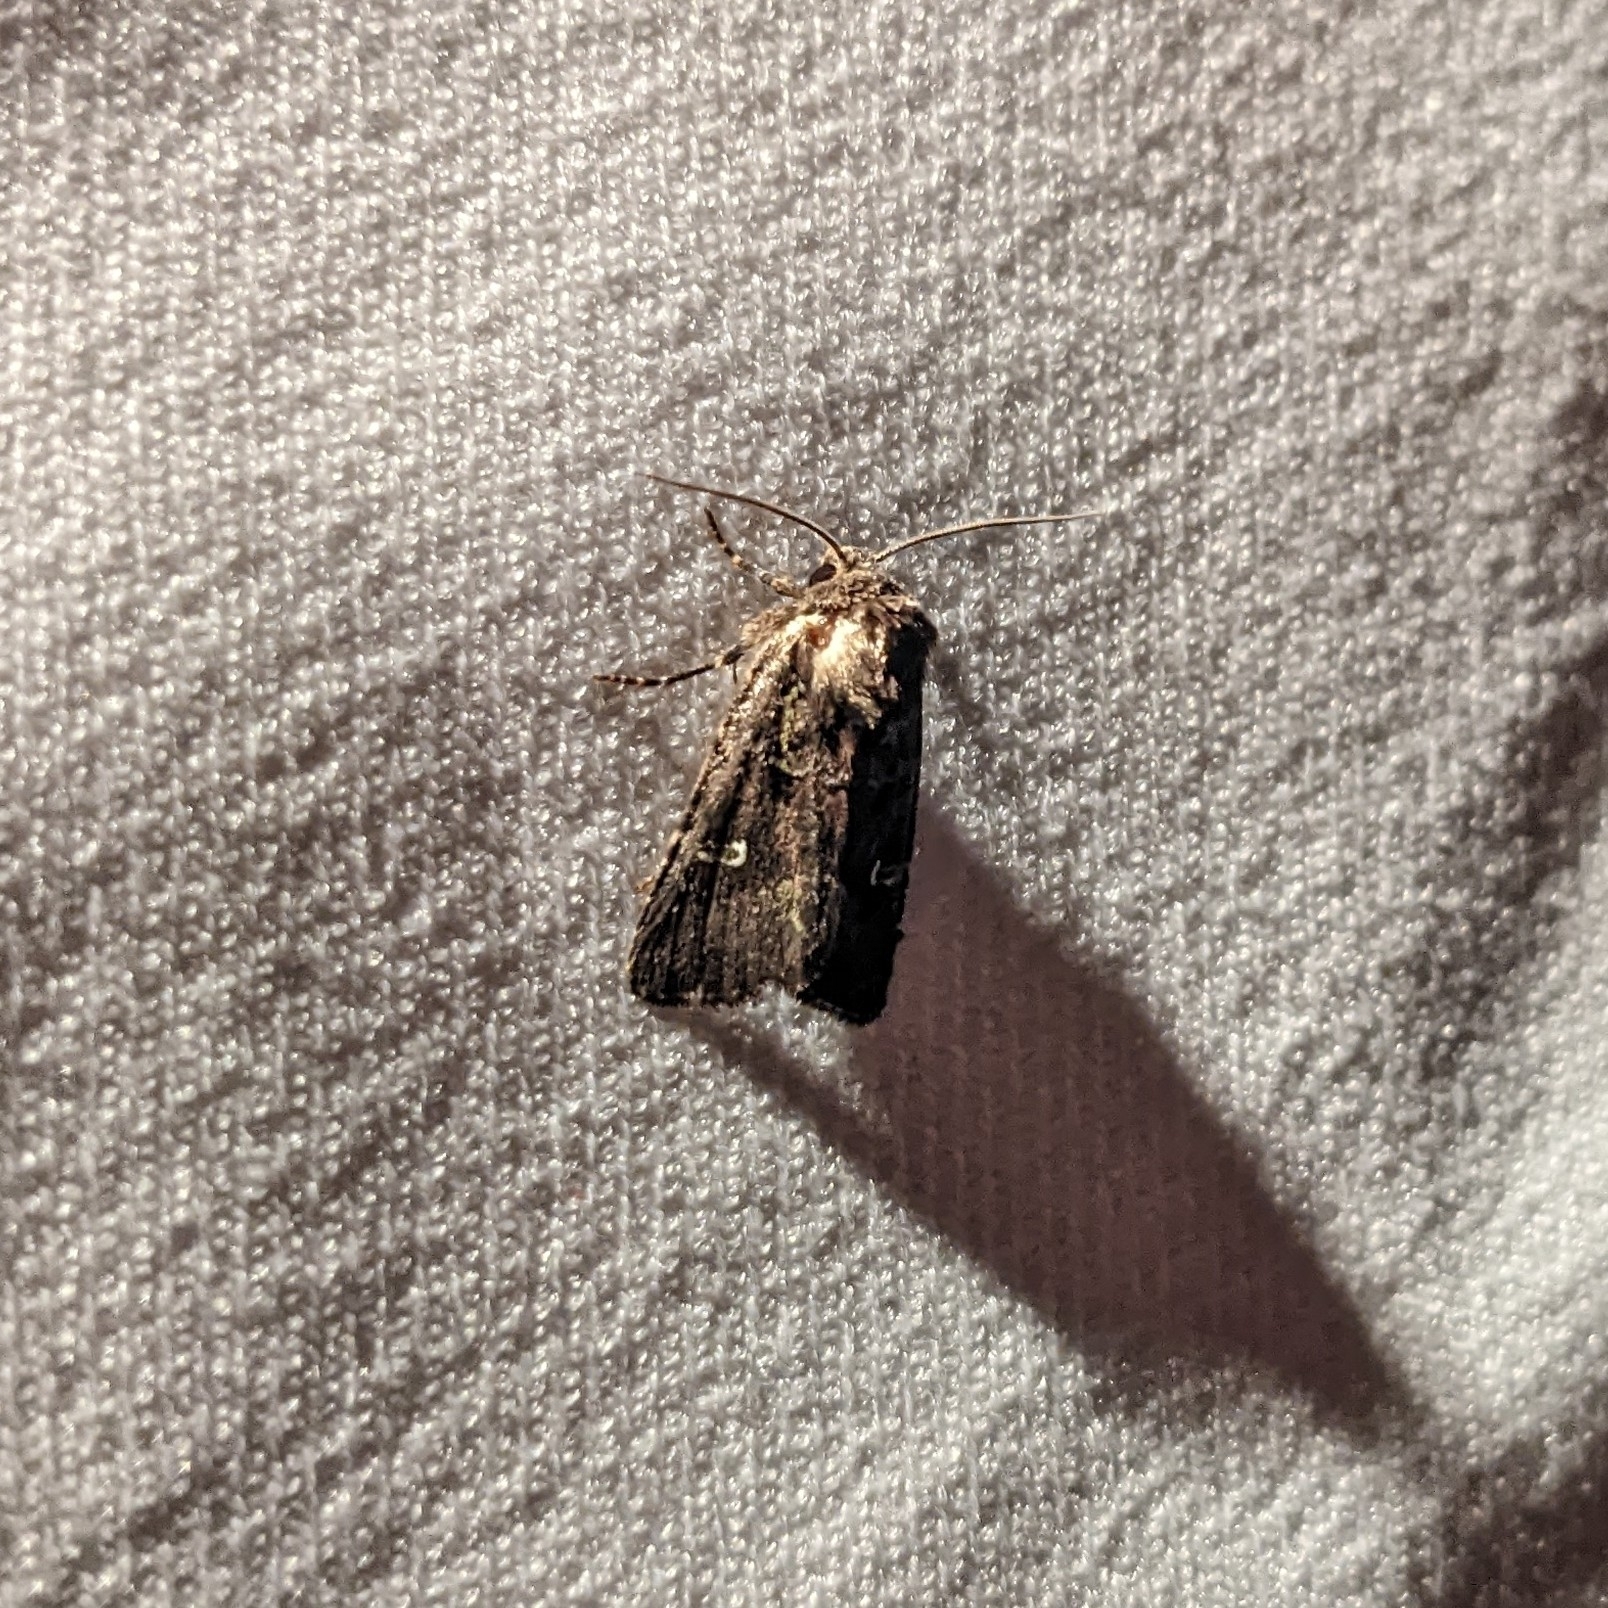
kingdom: Animalia
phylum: Arthropoda
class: Insecta
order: Lepidoptera
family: Noctuidae
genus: Lacinipolia
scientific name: Lacinipolia renigera
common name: Kidney-spotted minor
